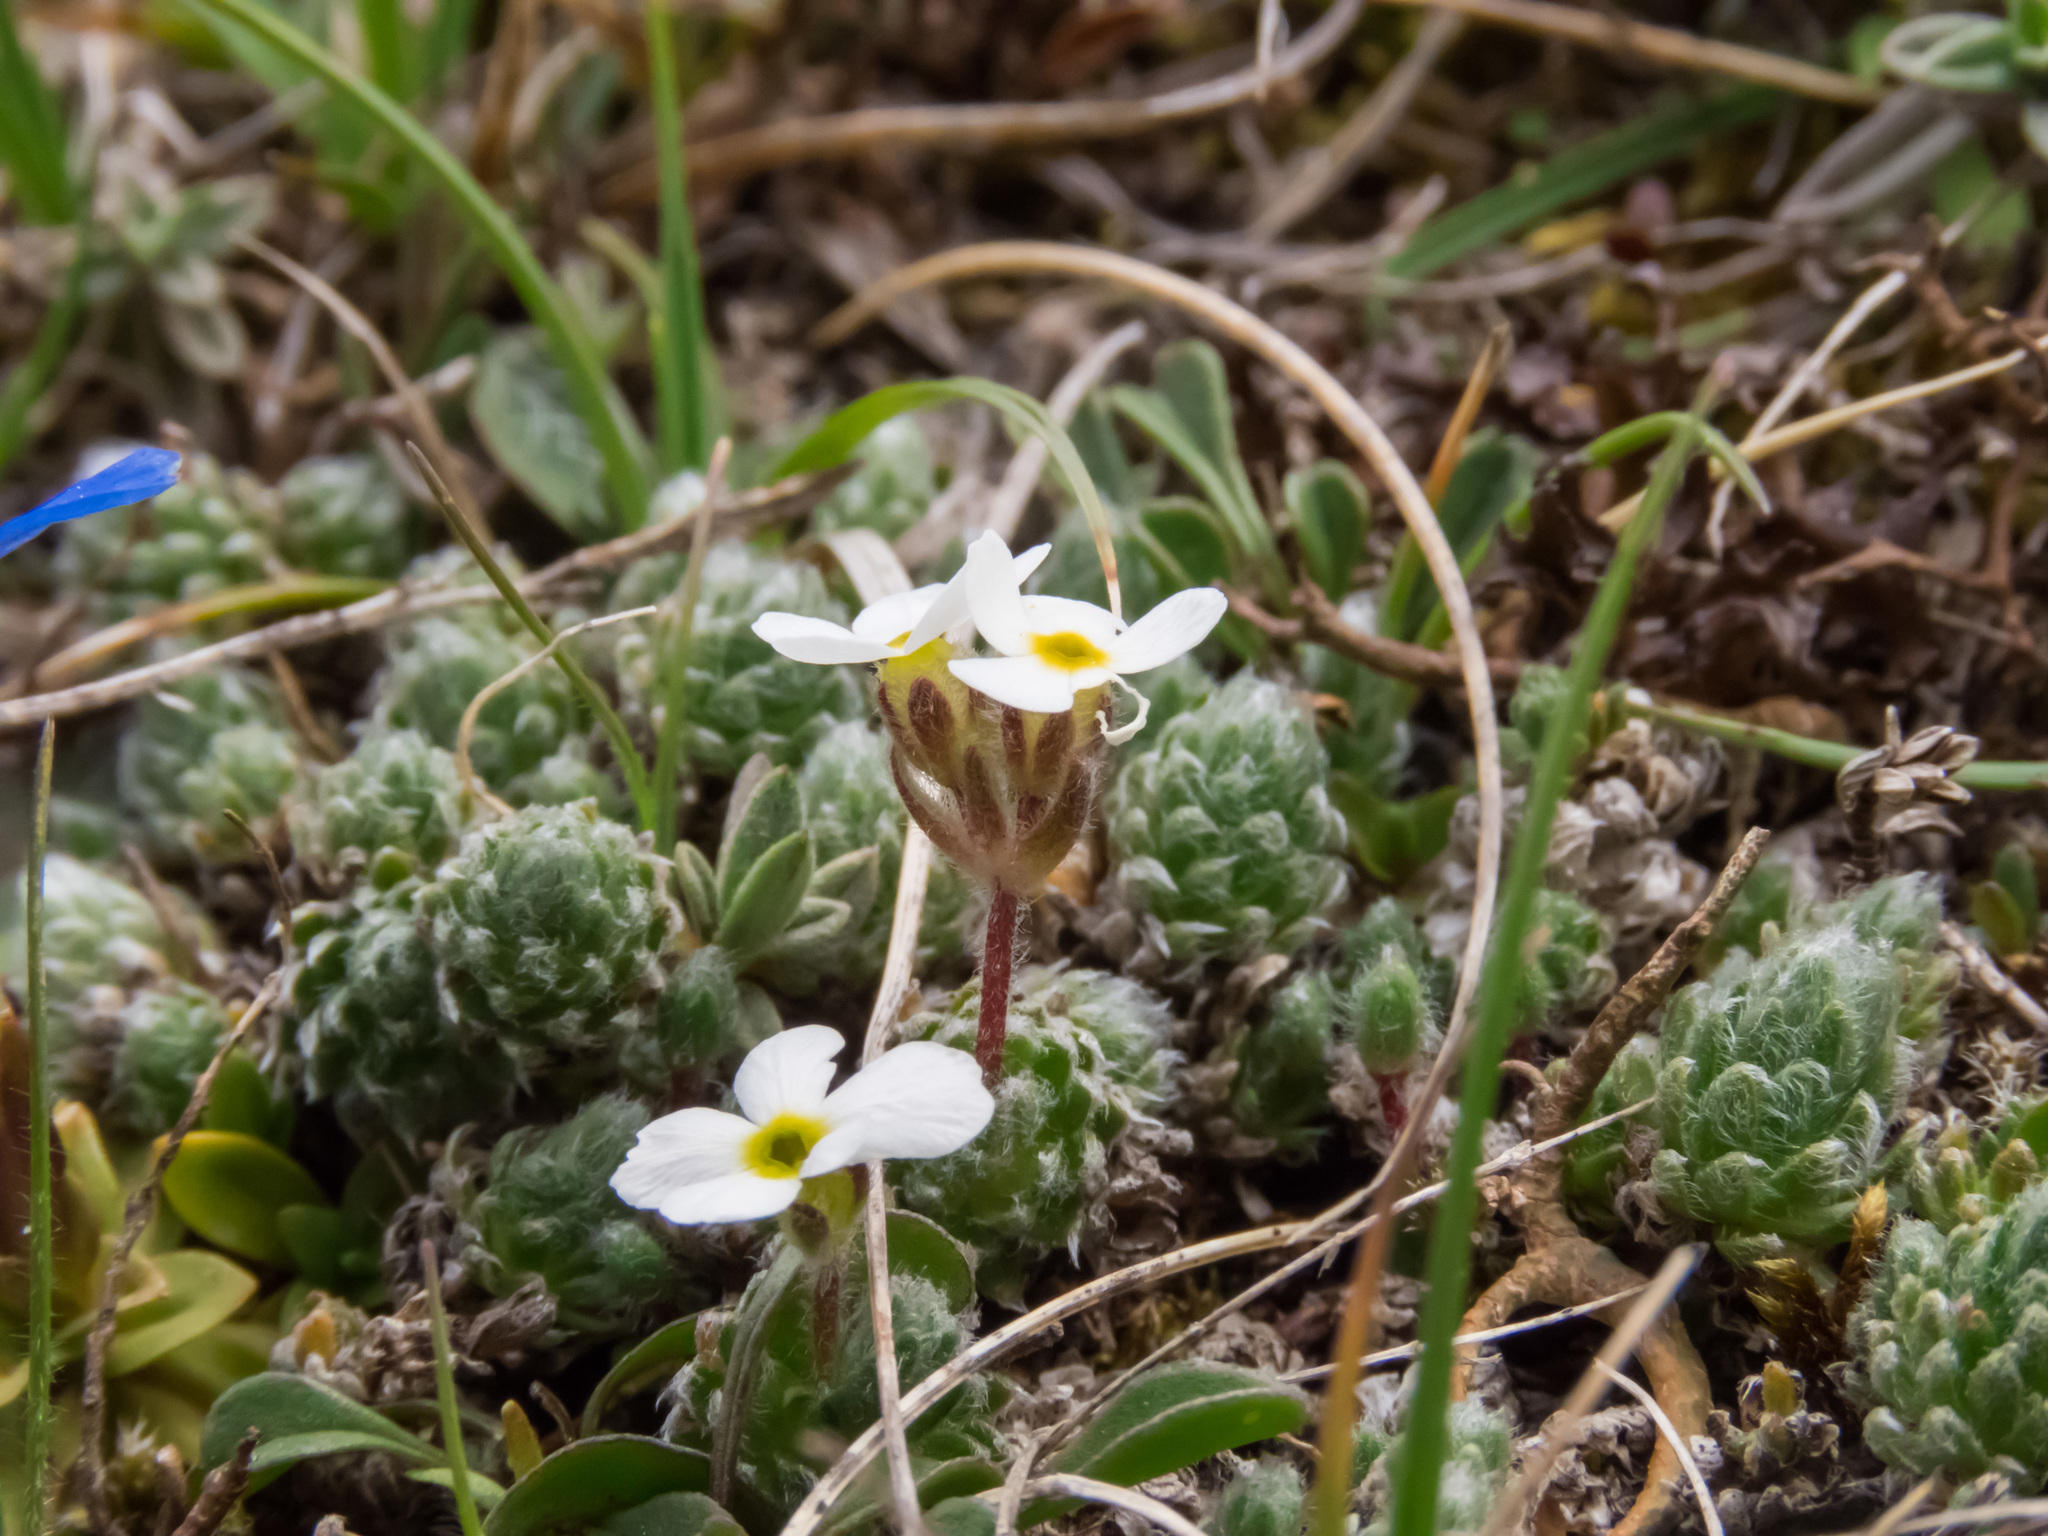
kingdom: Plantae
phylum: Tracheophyta
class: Magnoliopsida
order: Ericales
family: Primulaceae
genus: Androsace
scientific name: Androsace villosa
